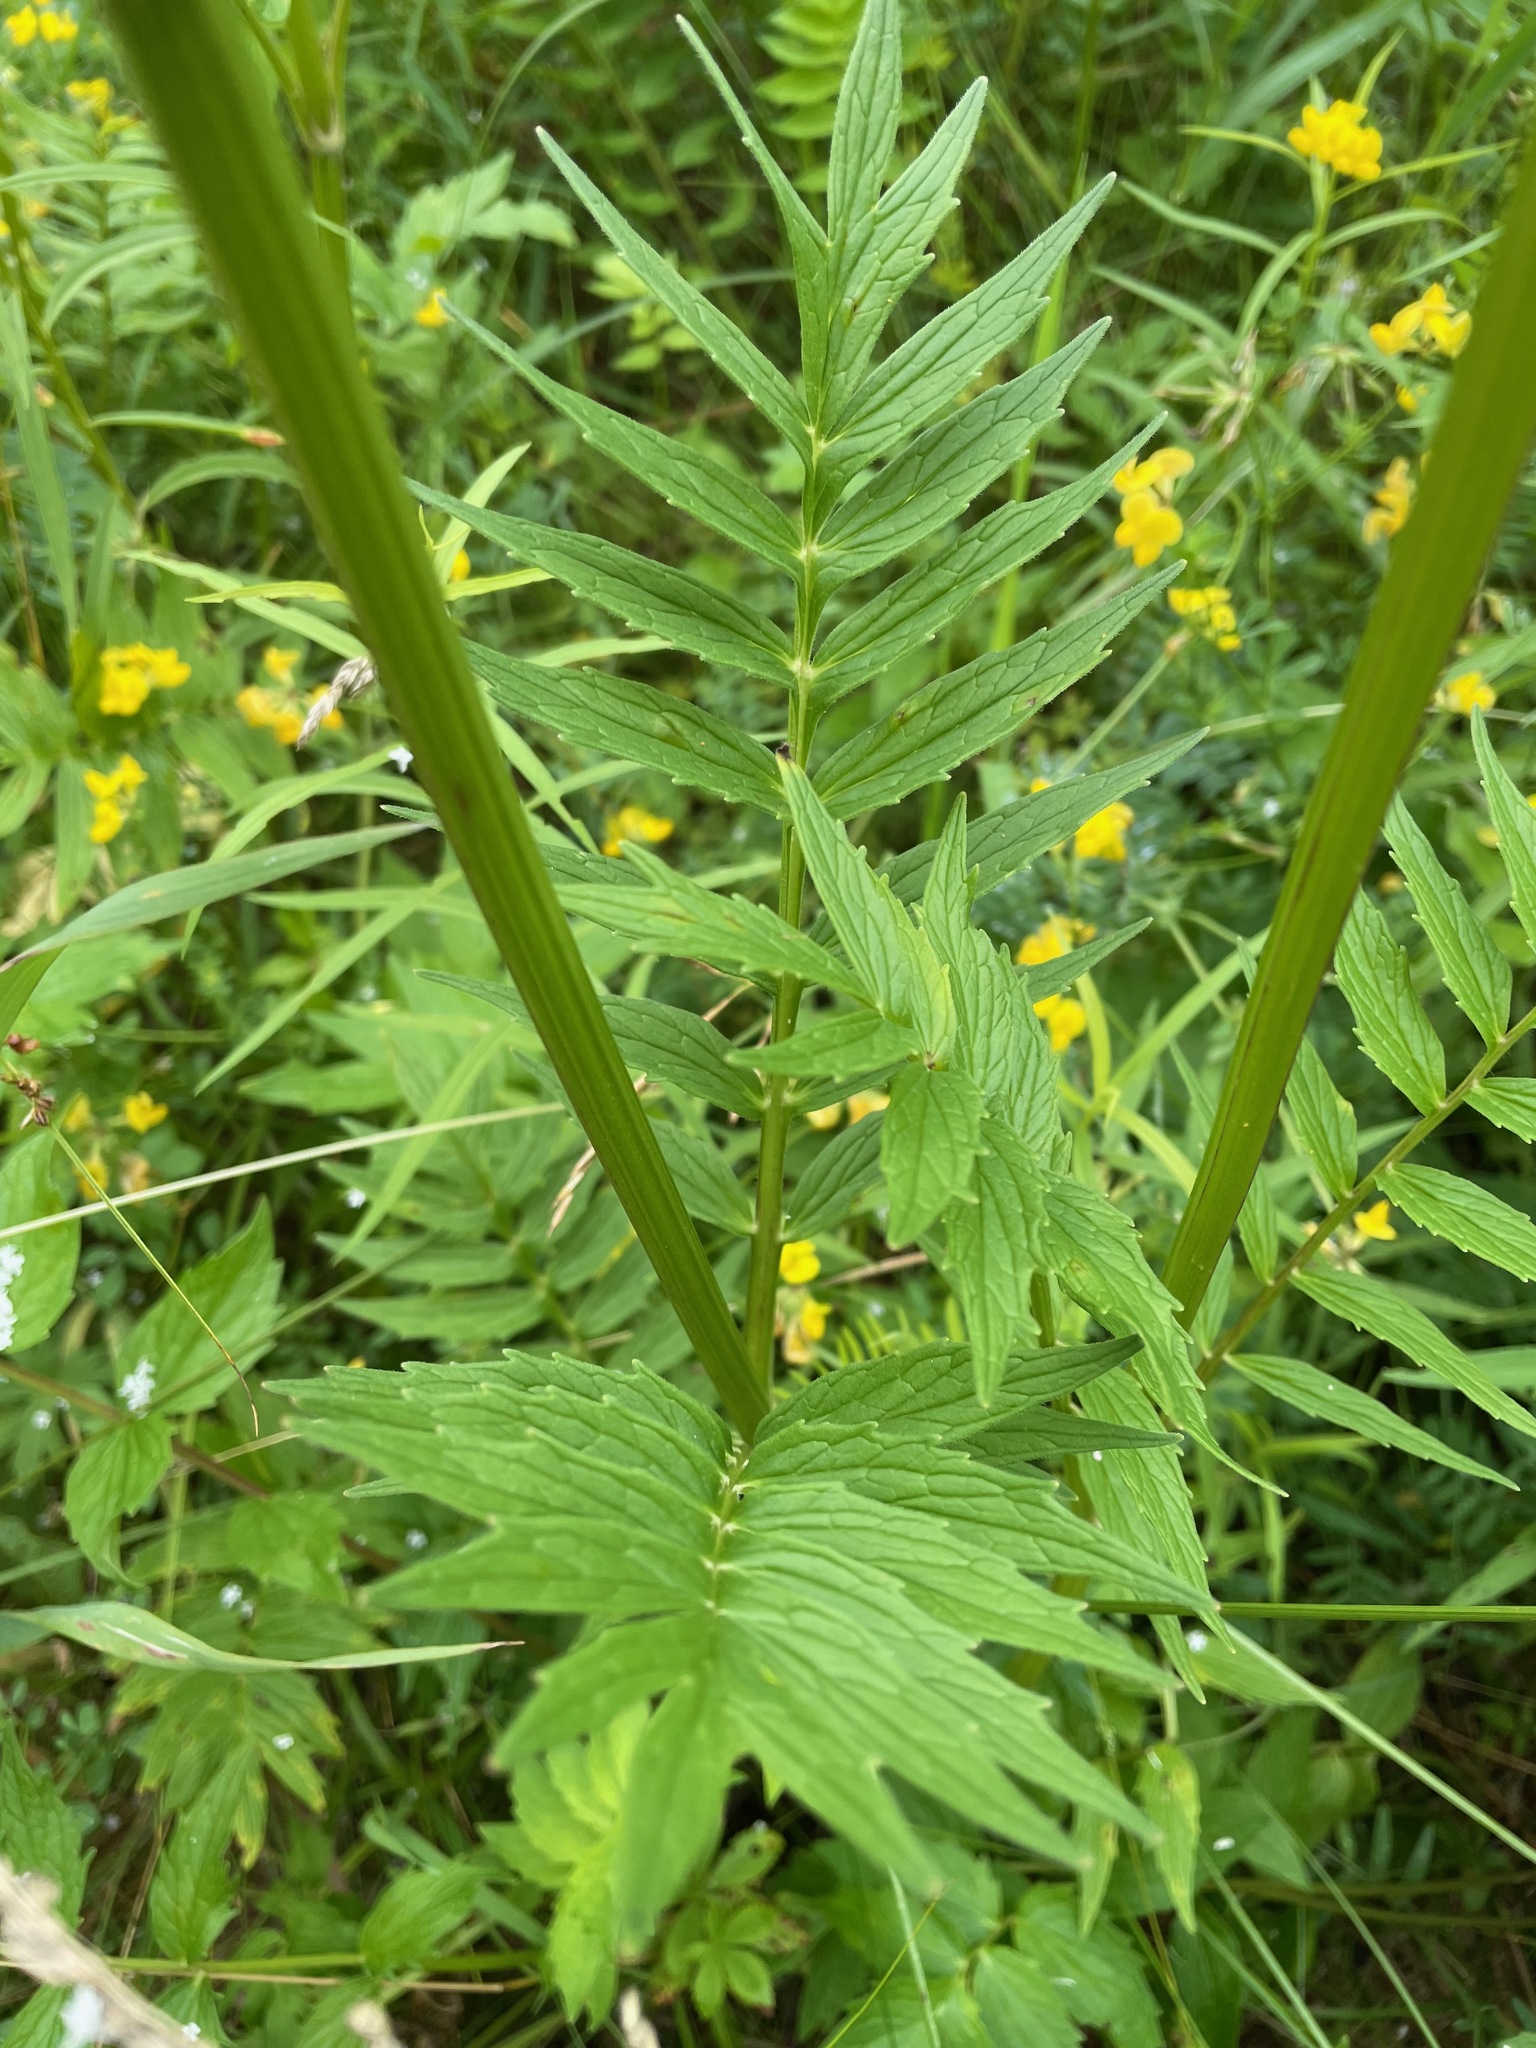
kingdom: Plantae
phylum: Tracheophyta
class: Magnoliopsida
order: Dipsacales
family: Caprifoliaceae
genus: Valeriana
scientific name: Valeriana officinalis
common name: Common valerian
